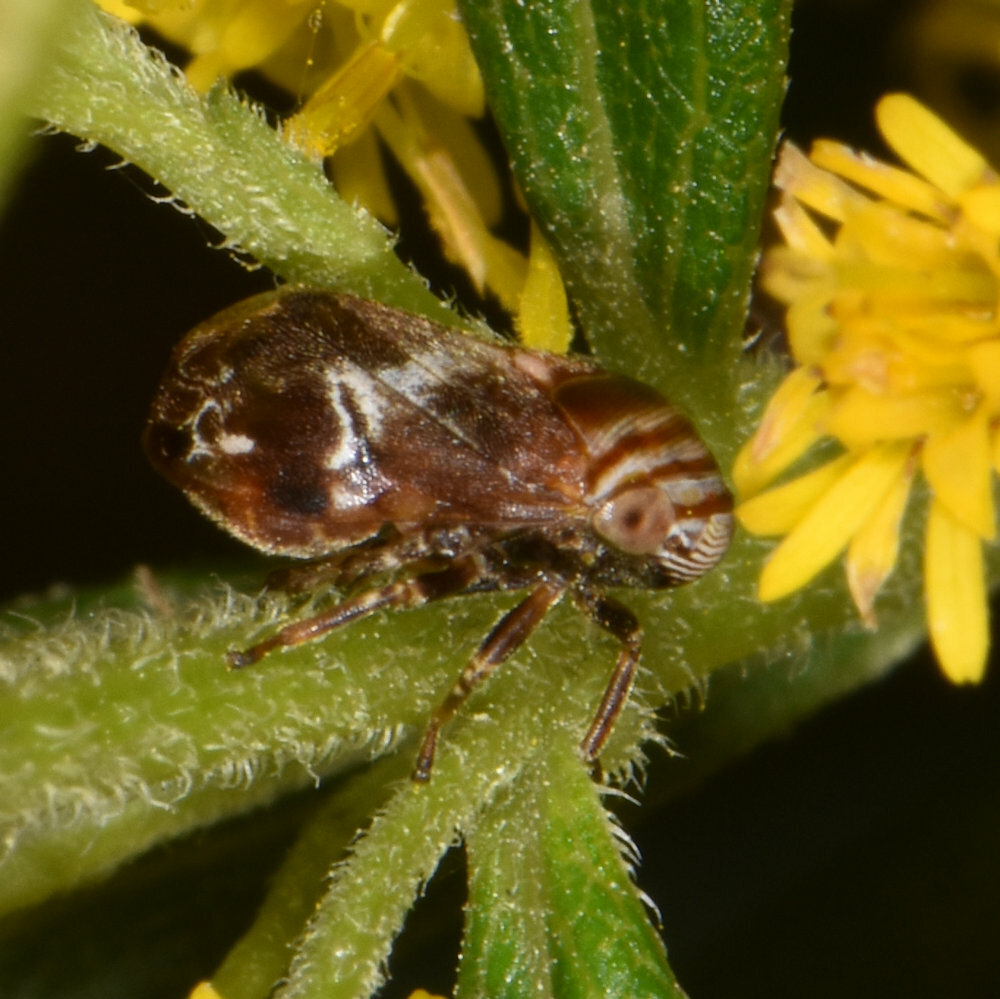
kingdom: Animalia
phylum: Arthropoda
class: Insecta
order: Hemiptera
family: Clastopteridae
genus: Clastoptera
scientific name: Clastoptera obtusa
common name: Alder spittlebug
